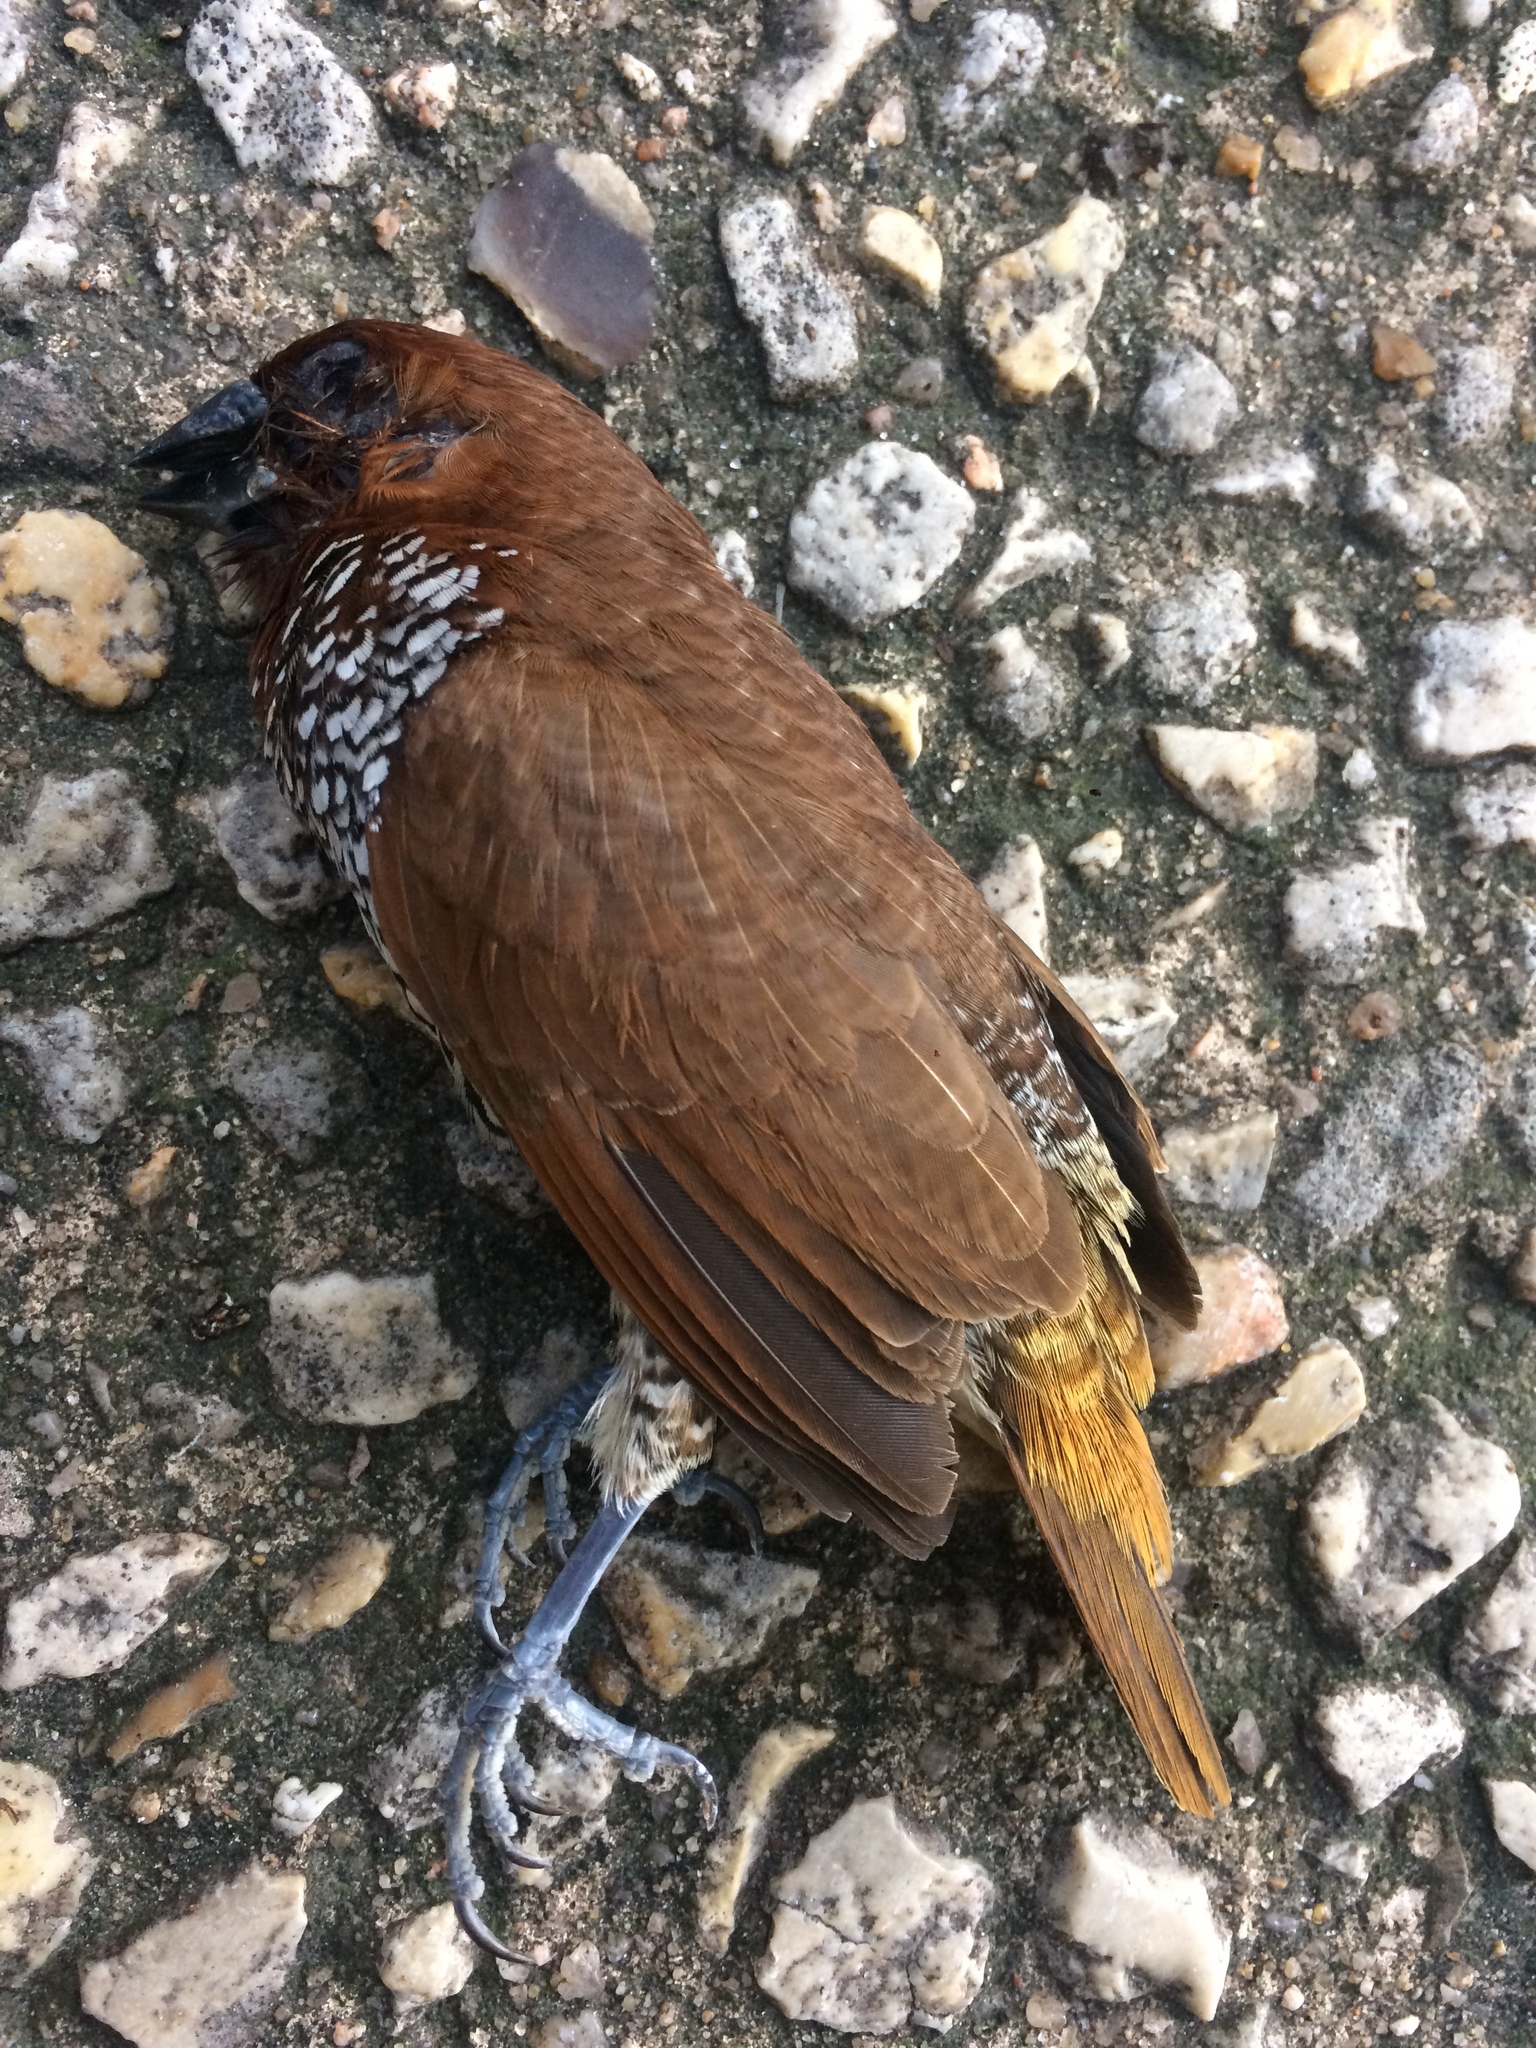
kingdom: Animalia
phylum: Chordata
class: Aves
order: Passeriformes
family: Estrildidae
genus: Lonchura
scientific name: Lonchura punctulata
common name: Scaly-breasted munia
